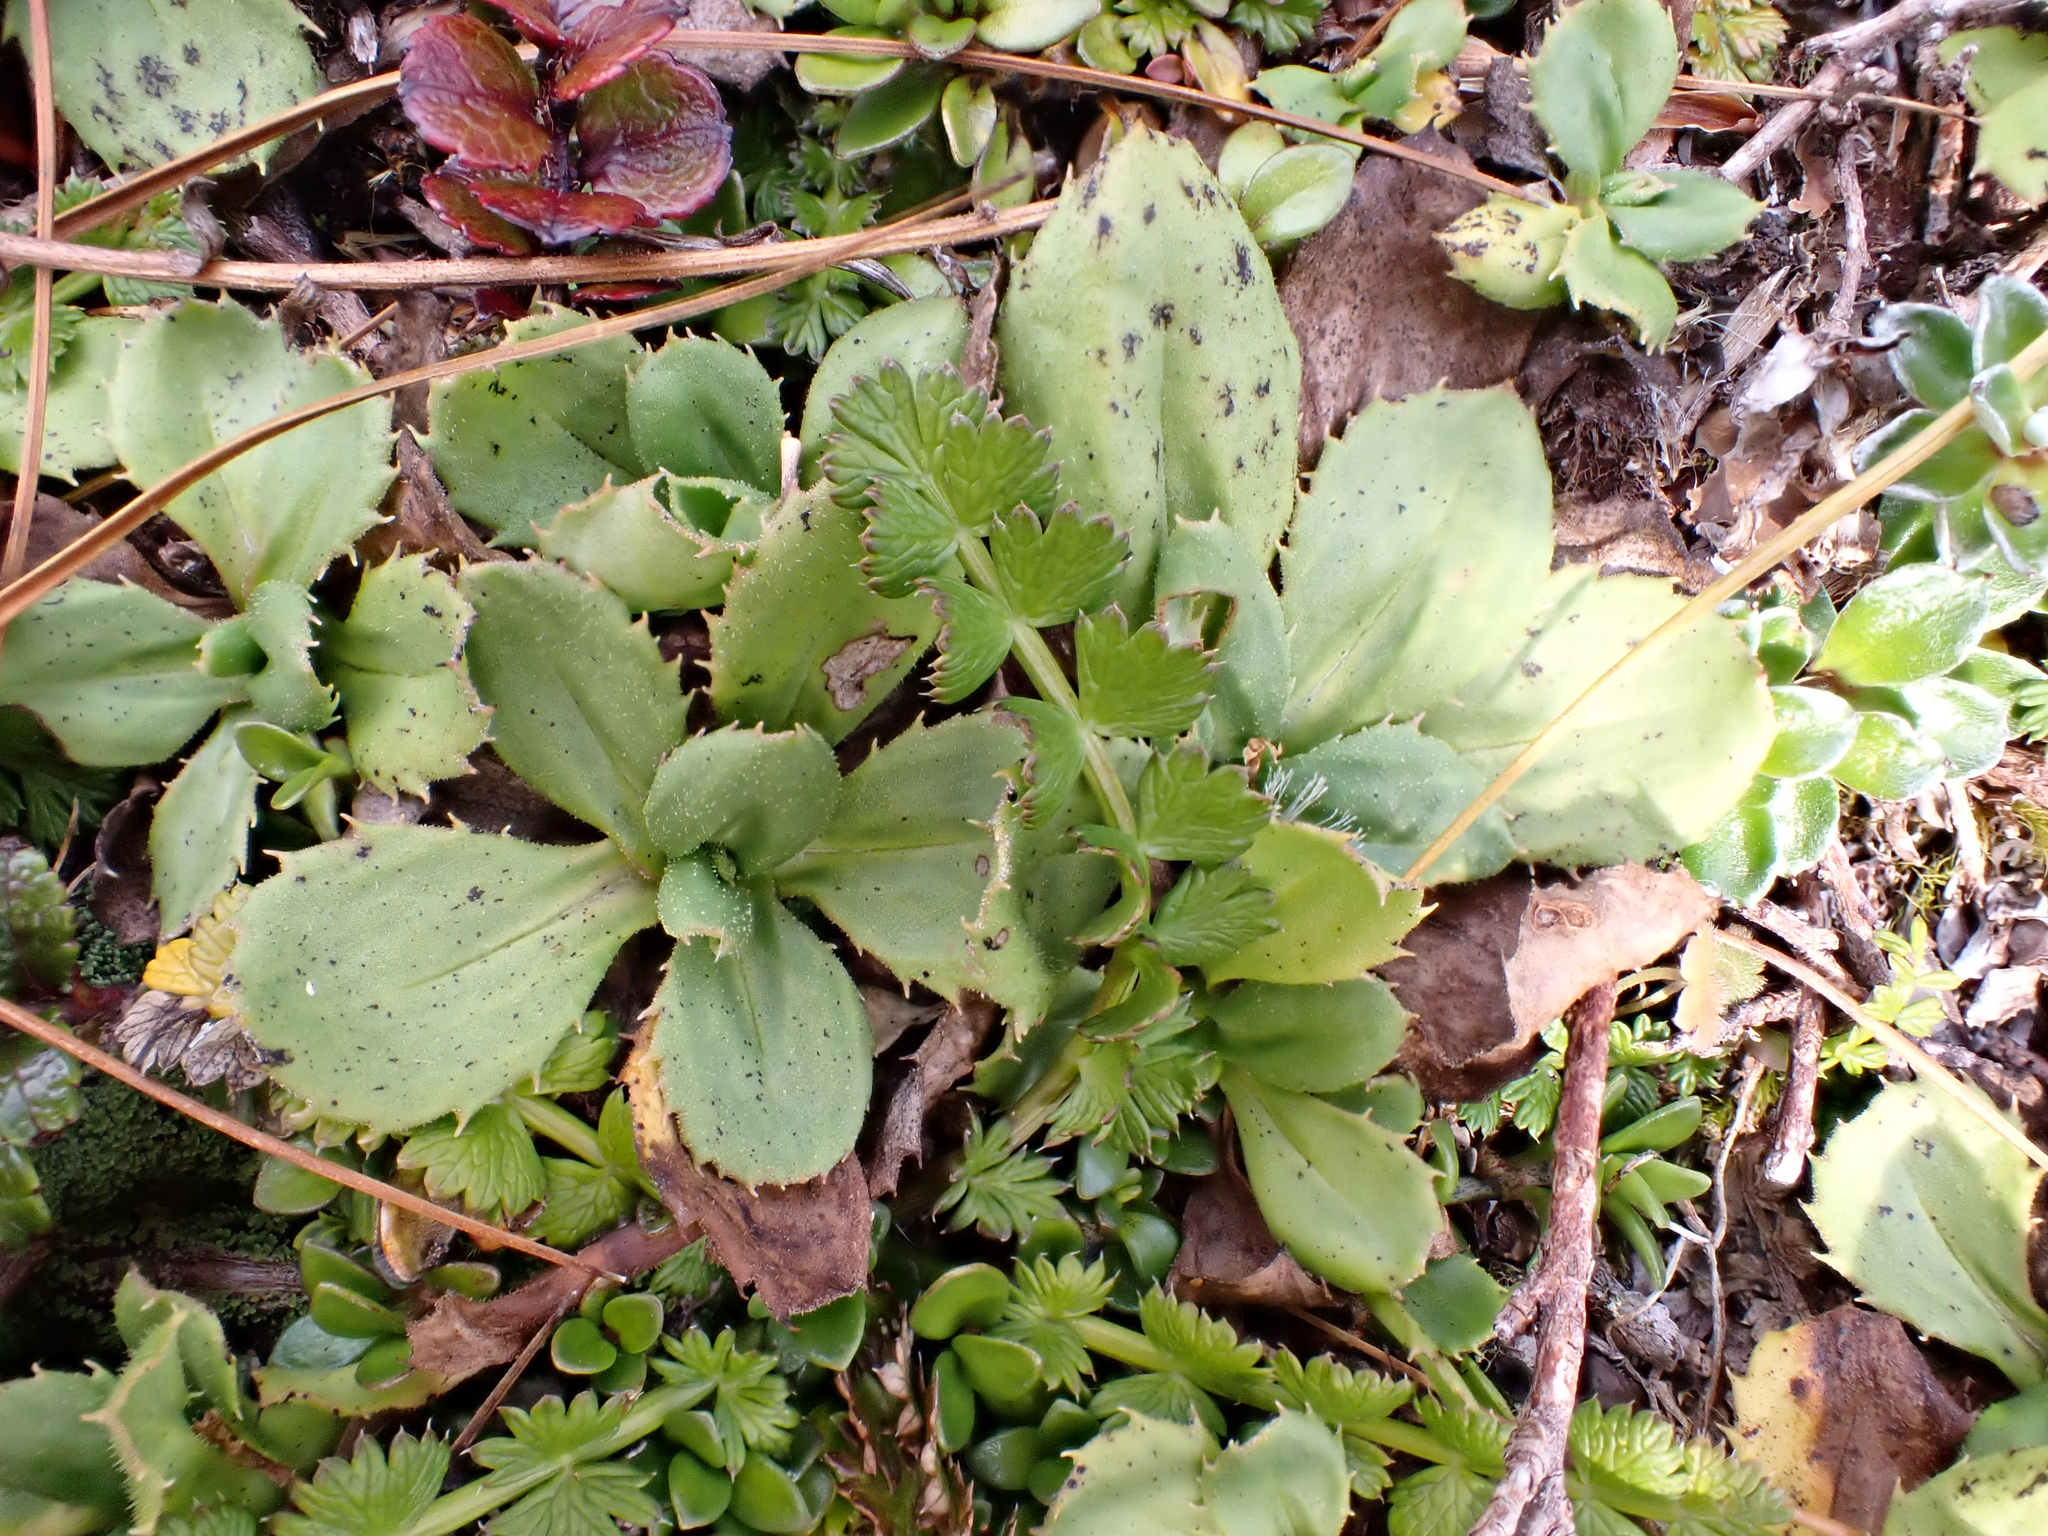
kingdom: Plantae
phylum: Tracheophyta
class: Magnoliopsida
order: Asterales
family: Asteraceae
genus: Celmisia
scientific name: Celmisia glandulosa
